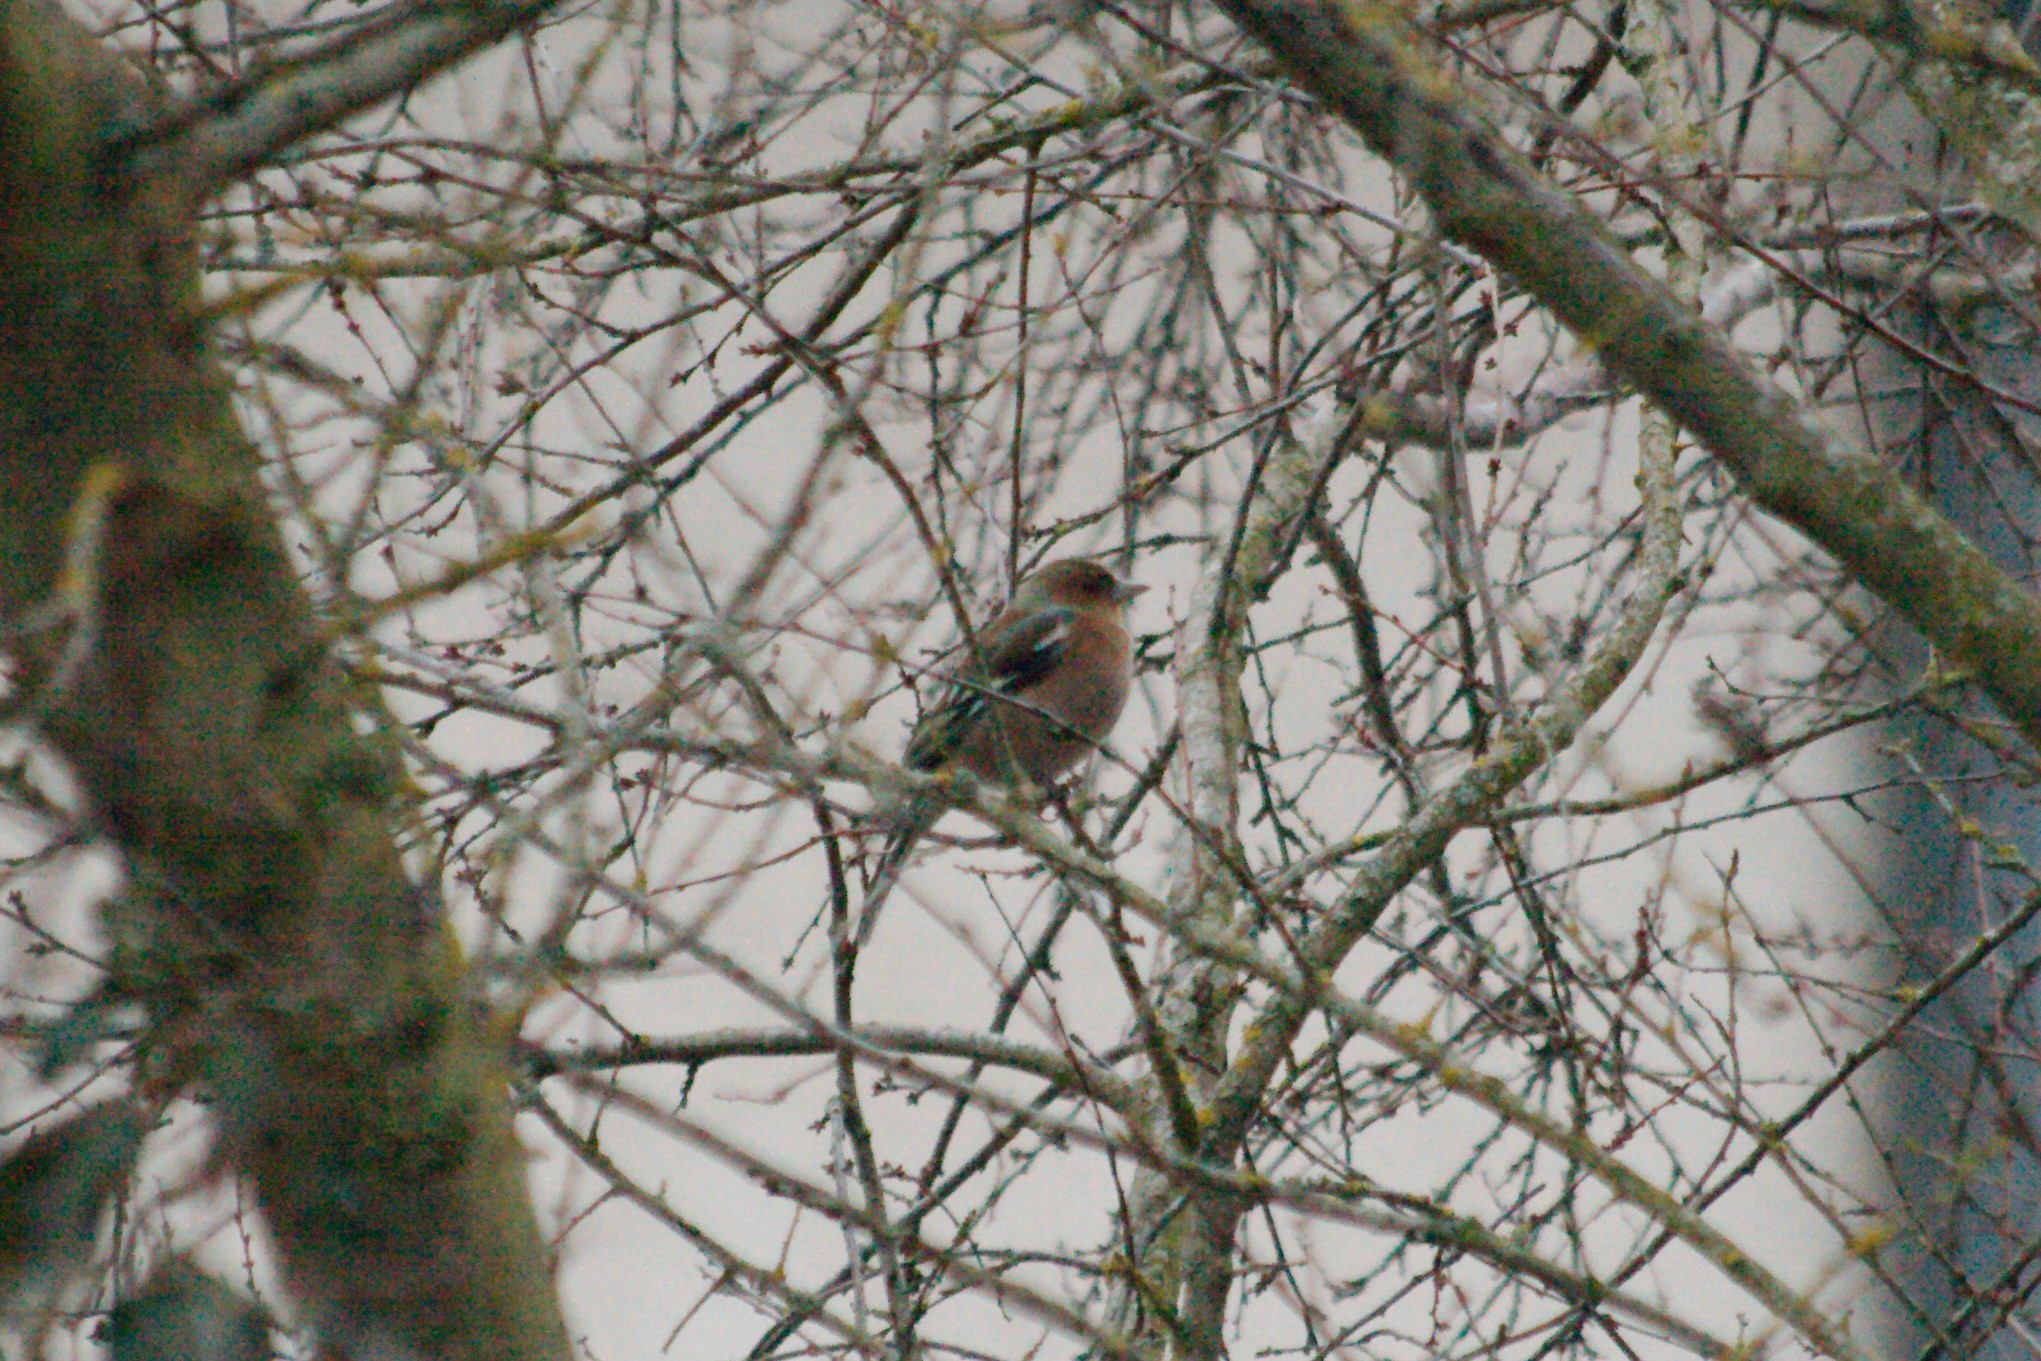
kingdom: Animalia
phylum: Chordata
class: Aves
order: Passeriformes
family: Fringillidae
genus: Fringilla
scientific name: Fringilla coelebs
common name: Common chaffinch
